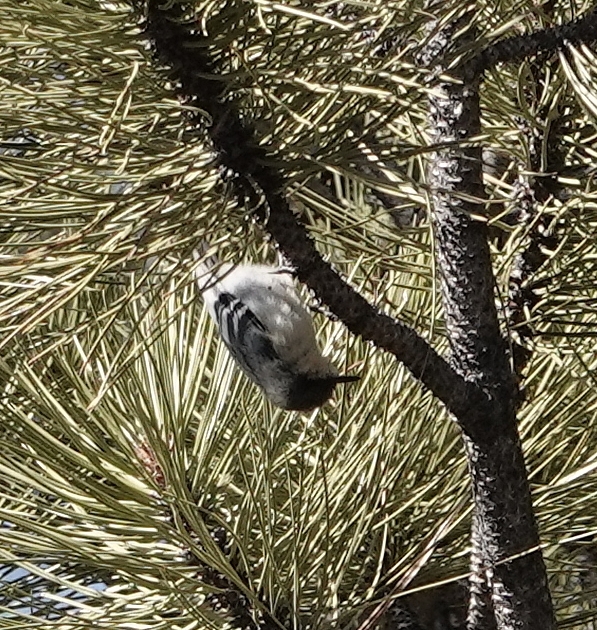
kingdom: Animalia
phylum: Chordata
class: Aves
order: Passeriformes
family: Sittidae
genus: Sitta
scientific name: Sitta pygmaea
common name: Pygmy nuthatch
